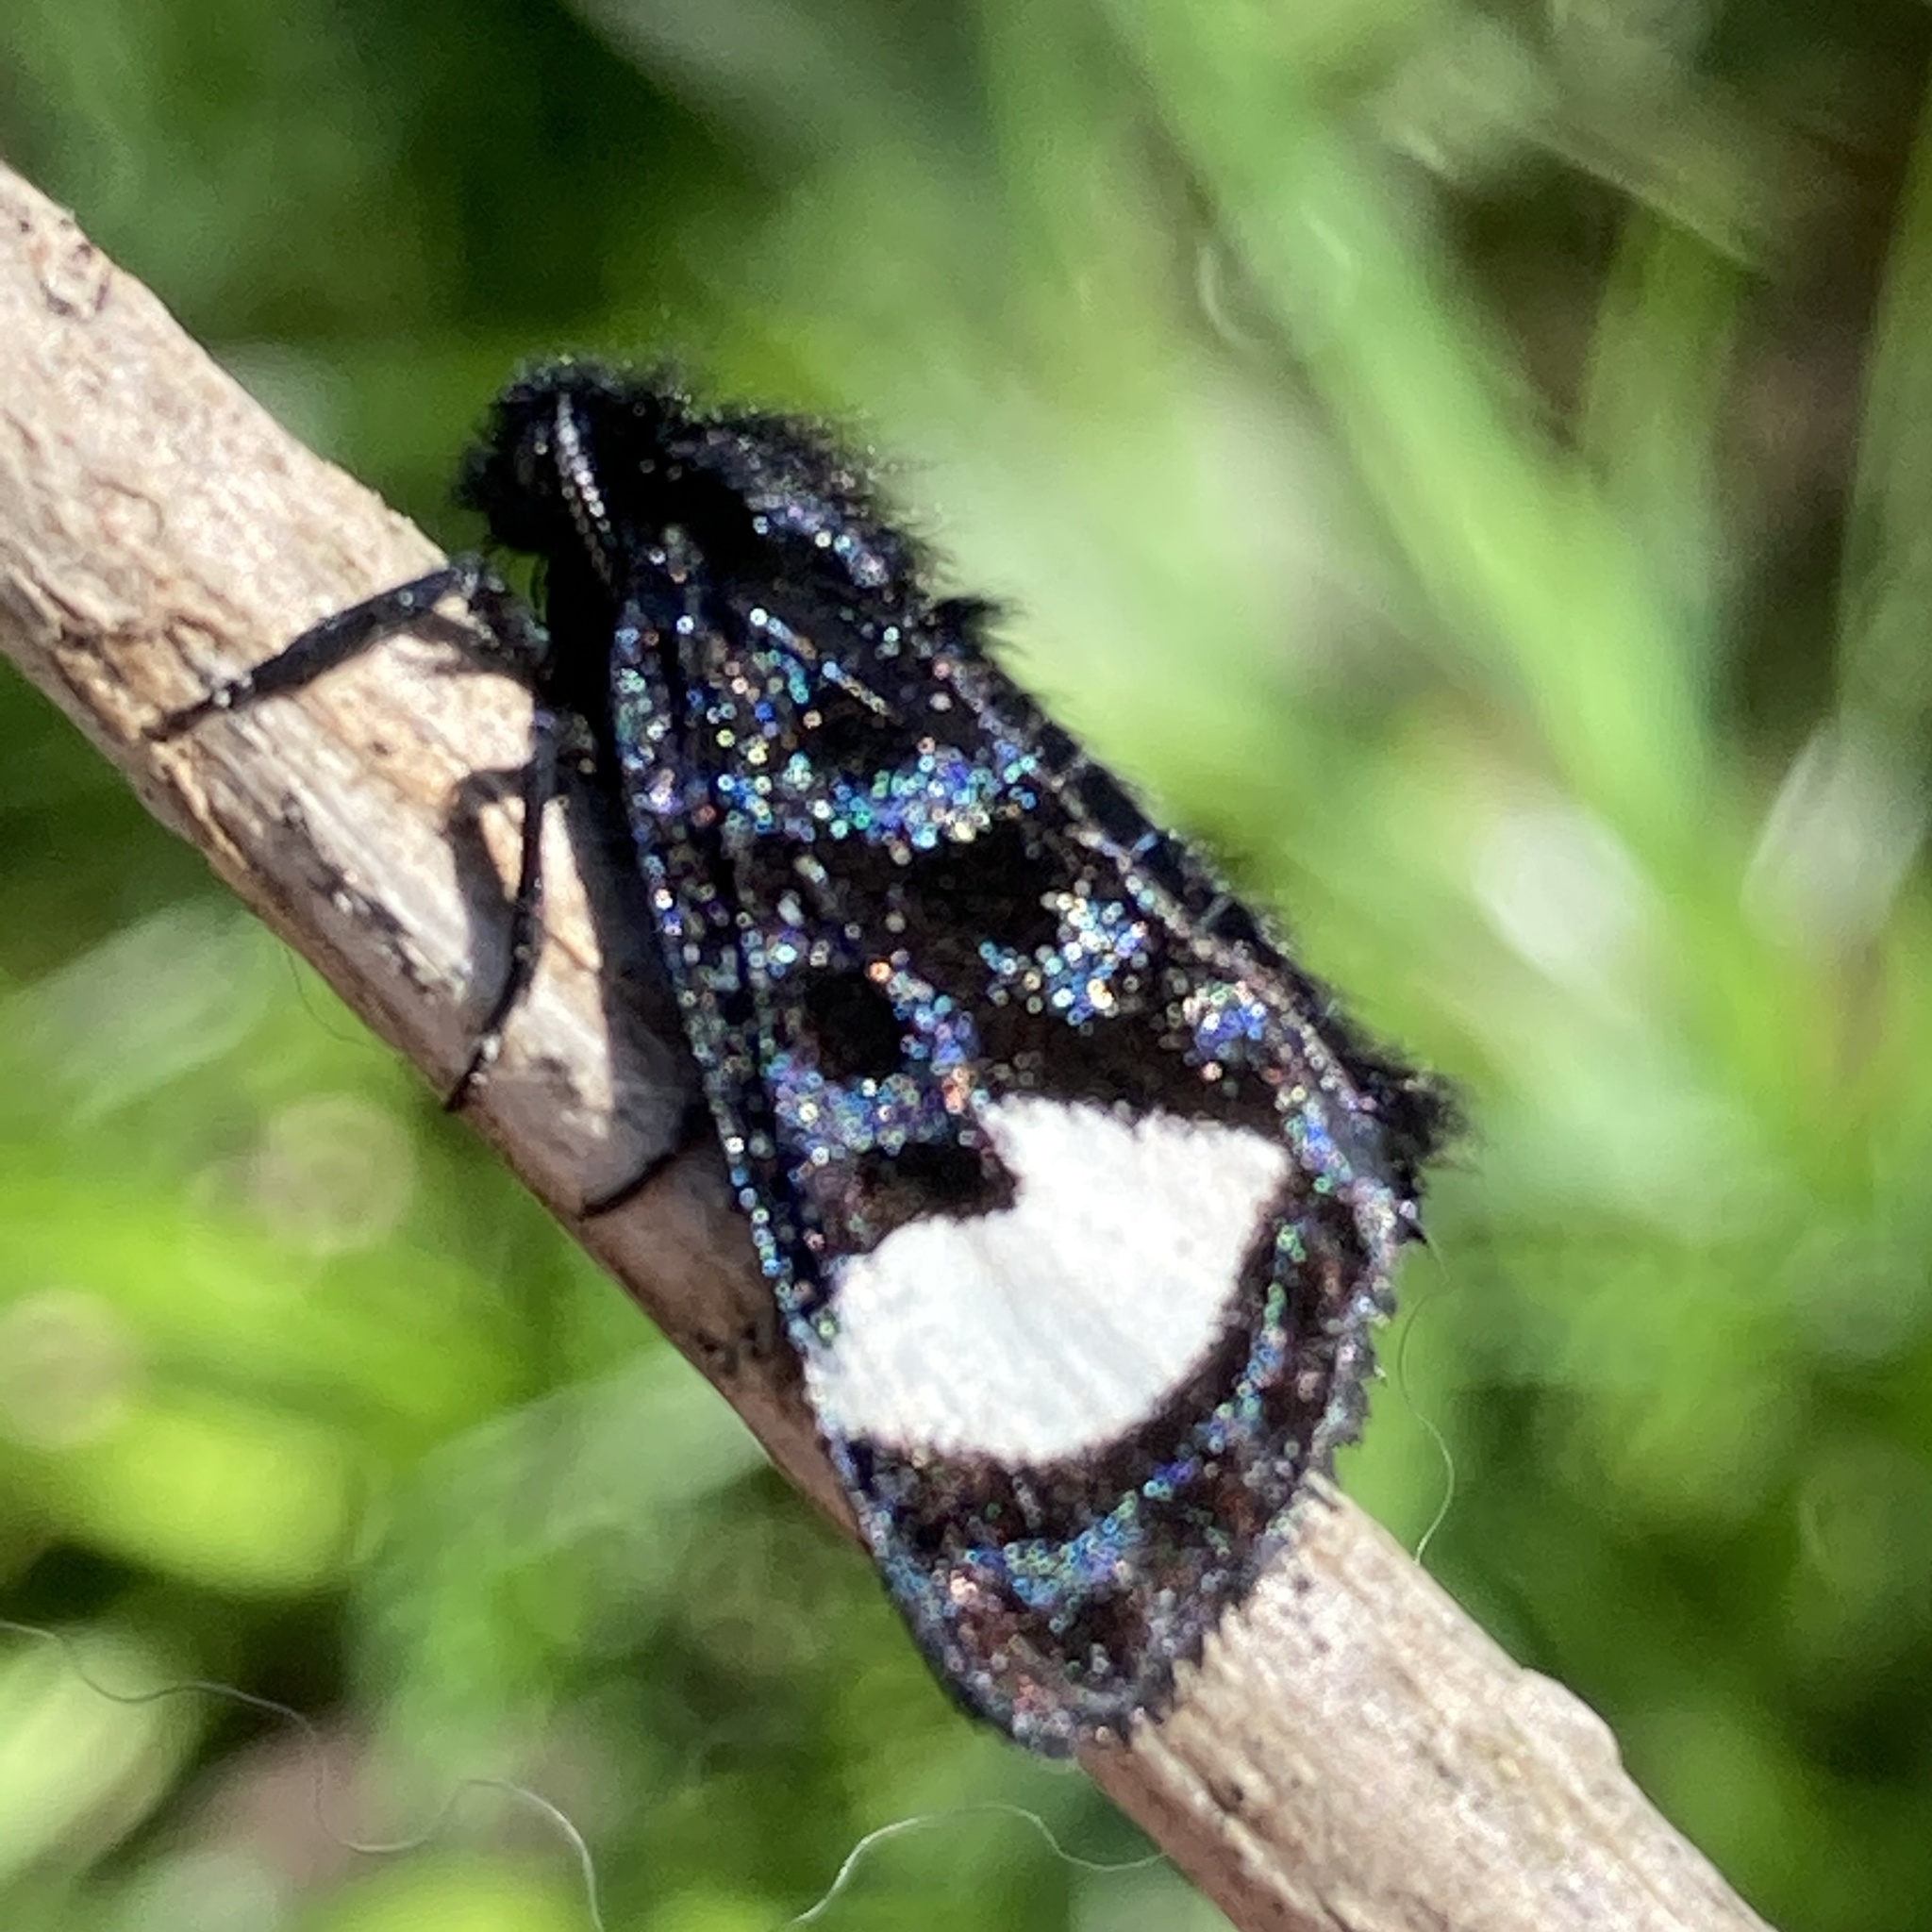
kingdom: Animalia
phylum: Arthropoda
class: Insecta
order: Lepidoptera
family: Noctuidae
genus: Psychomorpha
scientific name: Psychomorpha epimenis
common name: Grapevine epimenis moth
